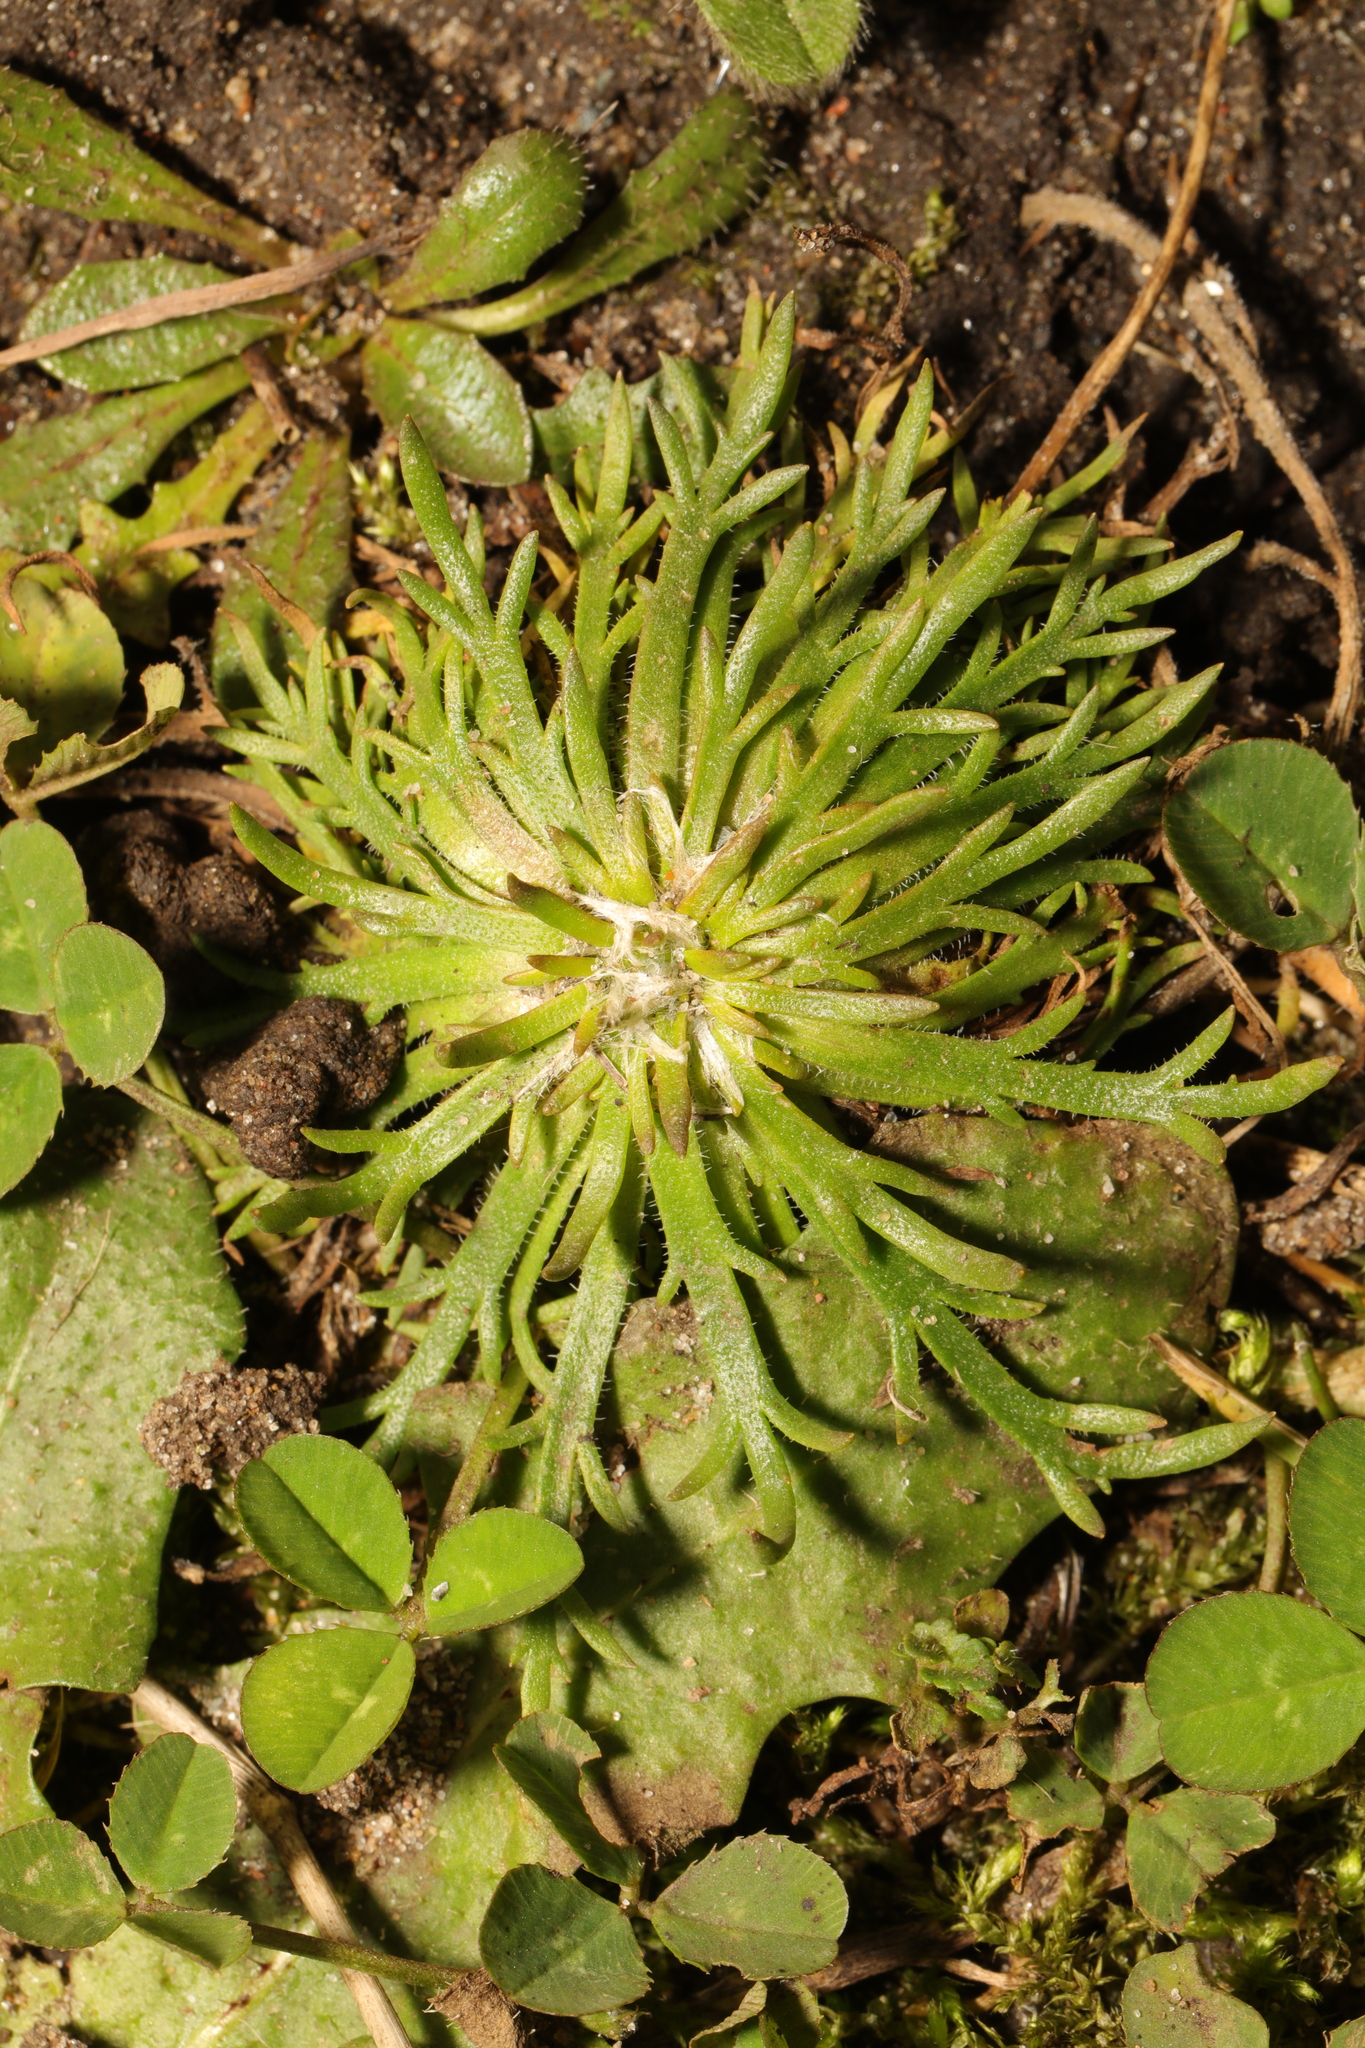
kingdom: Plantae
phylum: Tracheophyta
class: Magnoliopsida
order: Lamiales
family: Plantaginaceae
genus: Plantago
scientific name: Plantago coronopus
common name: Buck's-horn plantain
